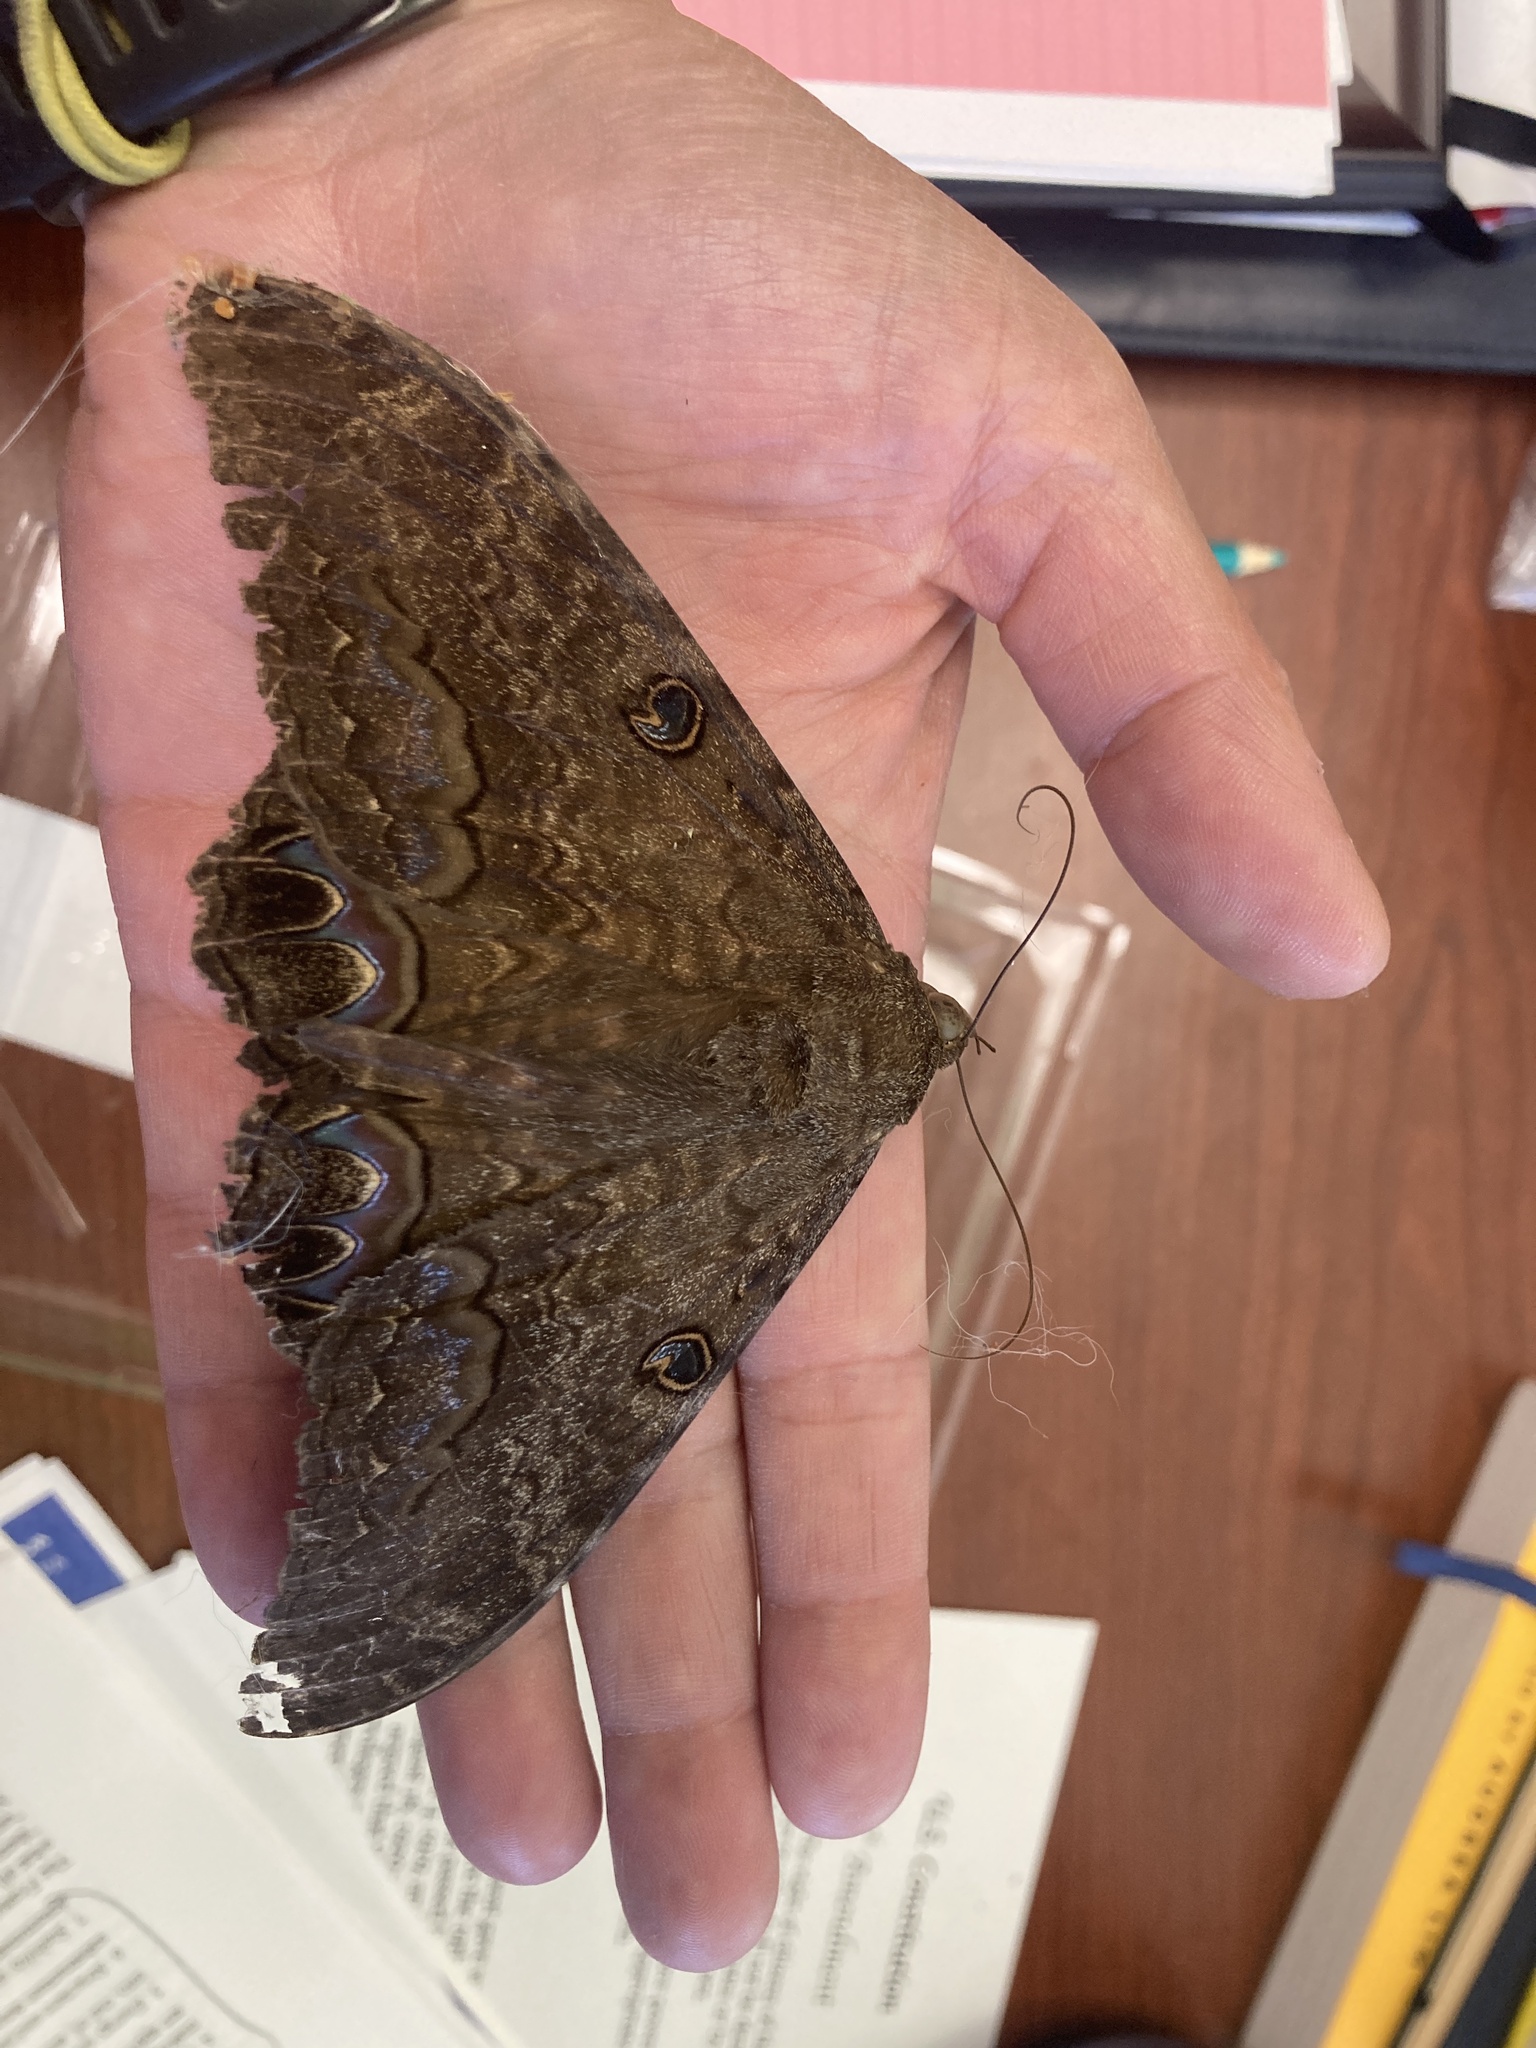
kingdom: Animalia
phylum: Arthropoda
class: Insecta
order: Lepidoptera
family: Erebidae
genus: Ascalapha
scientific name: Ascalapha odorata
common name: Black witch
